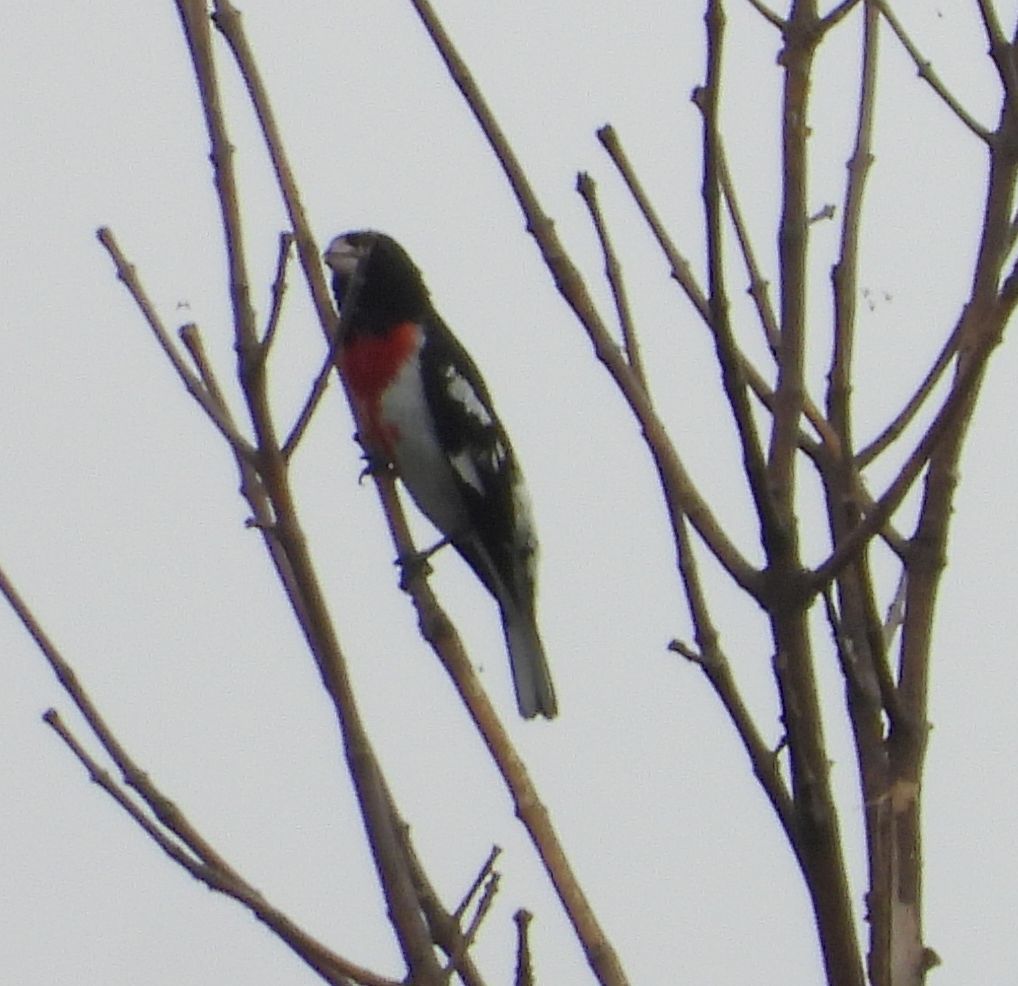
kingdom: Animalia
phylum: Chordata
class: Aves
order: Passeriformes
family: Cardinalidae
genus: Pheucticus
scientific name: Pheucticus ludovicianus
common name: Rose-breasted grosbeak
